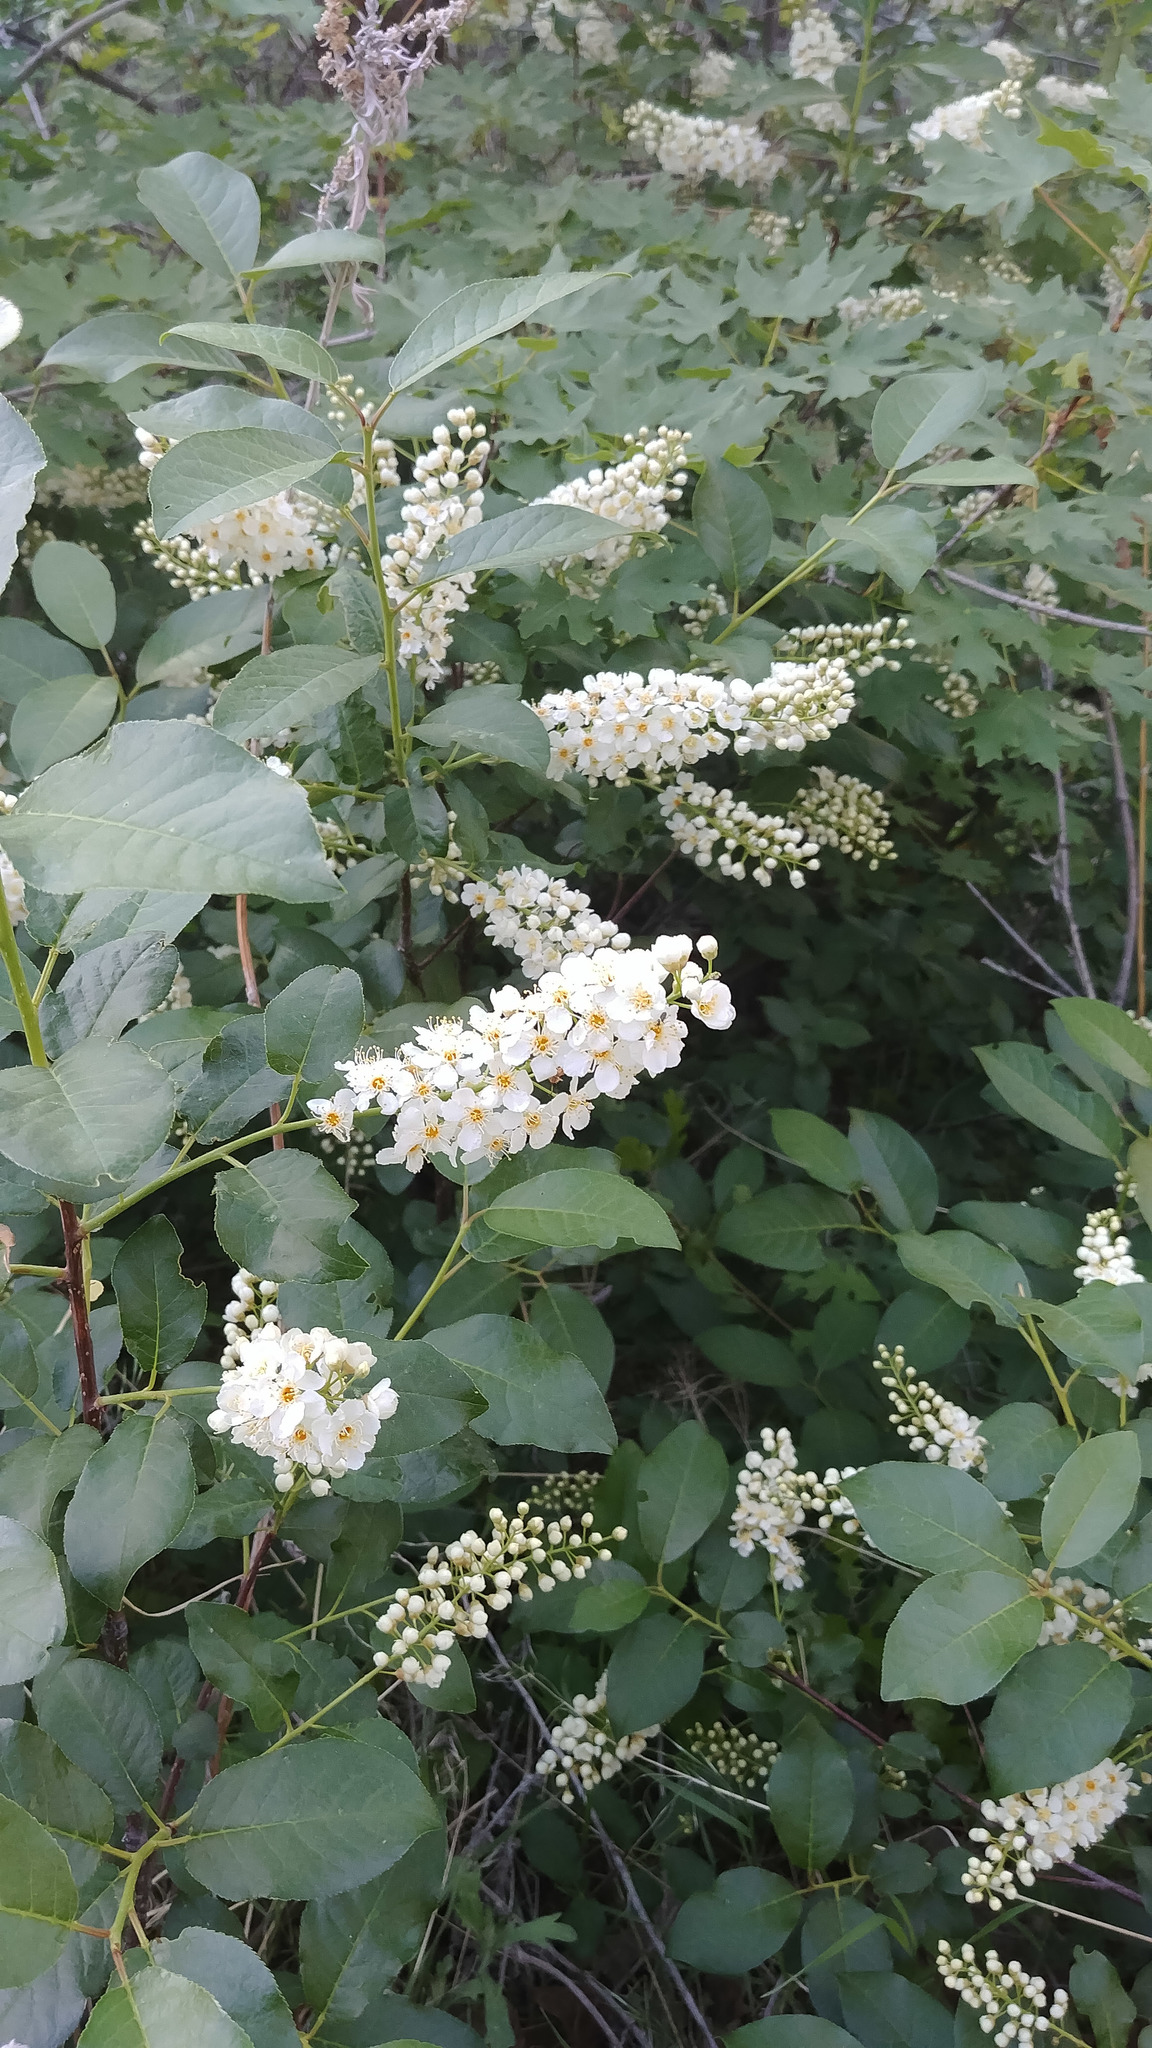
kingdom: Plantae
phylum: Tracheophyta
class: Magnoliopsida
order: Rosales
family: Rosaceae
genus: Prunus
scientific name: Prunus virginiana
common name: Chokecherry
